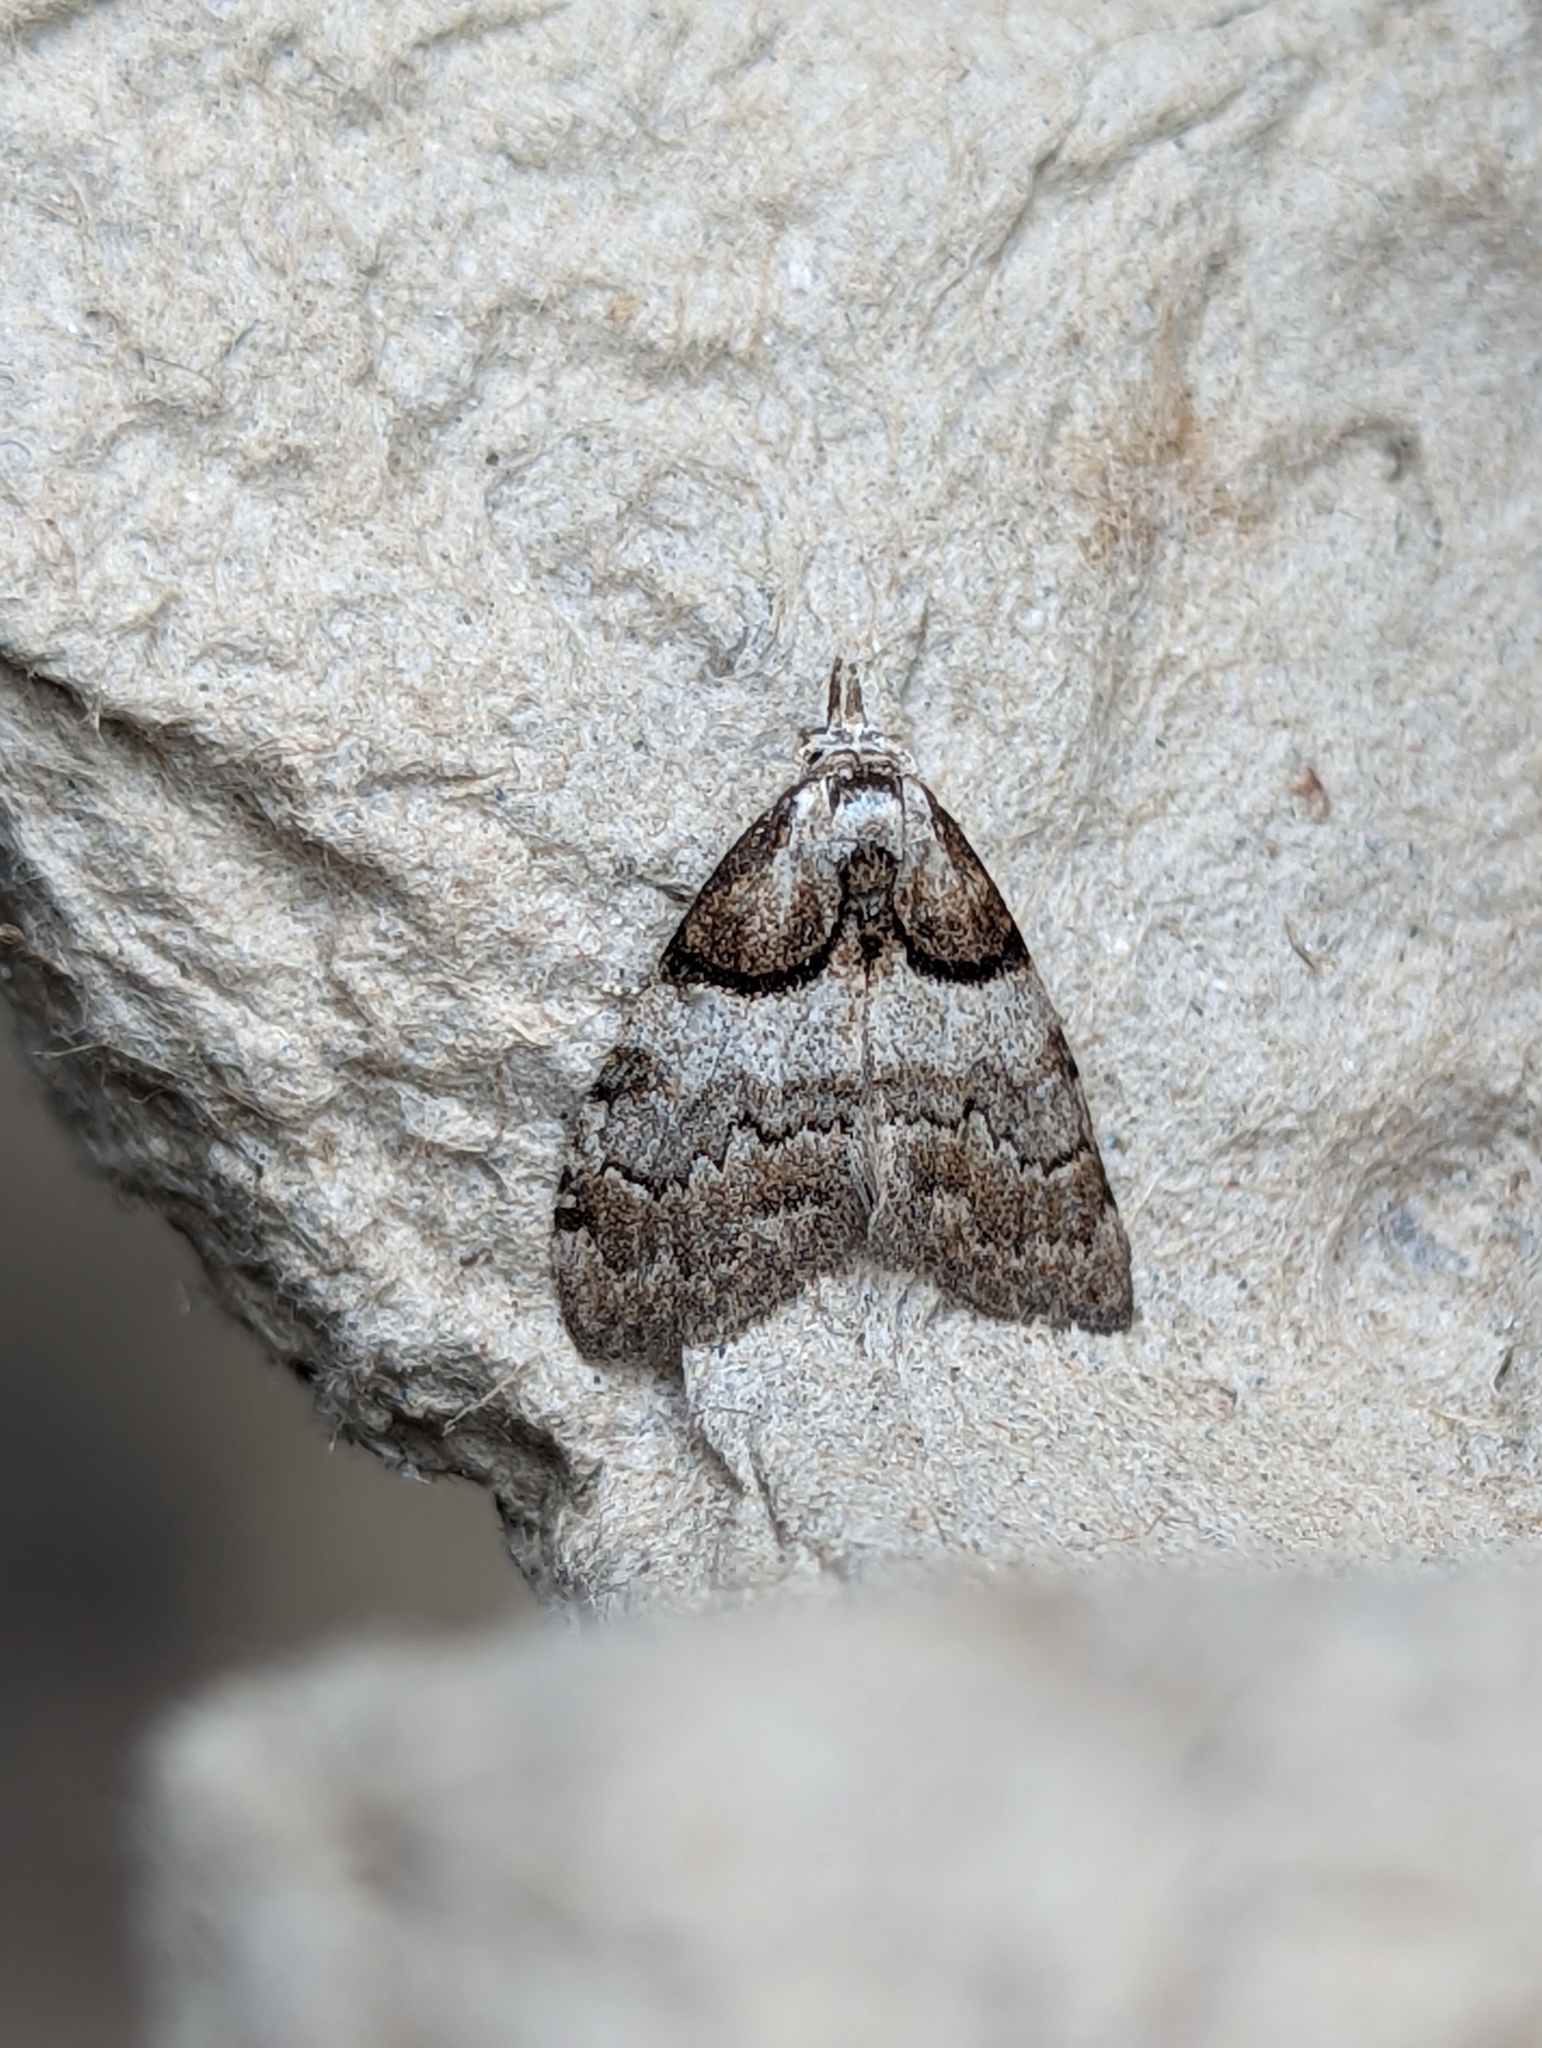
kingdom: Animalia
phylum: Arthropoda
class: Insecta
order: Lepidoptera
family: Nolidae
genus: Nola
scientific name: Nola cucullatella
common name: Short-cloaked moth
